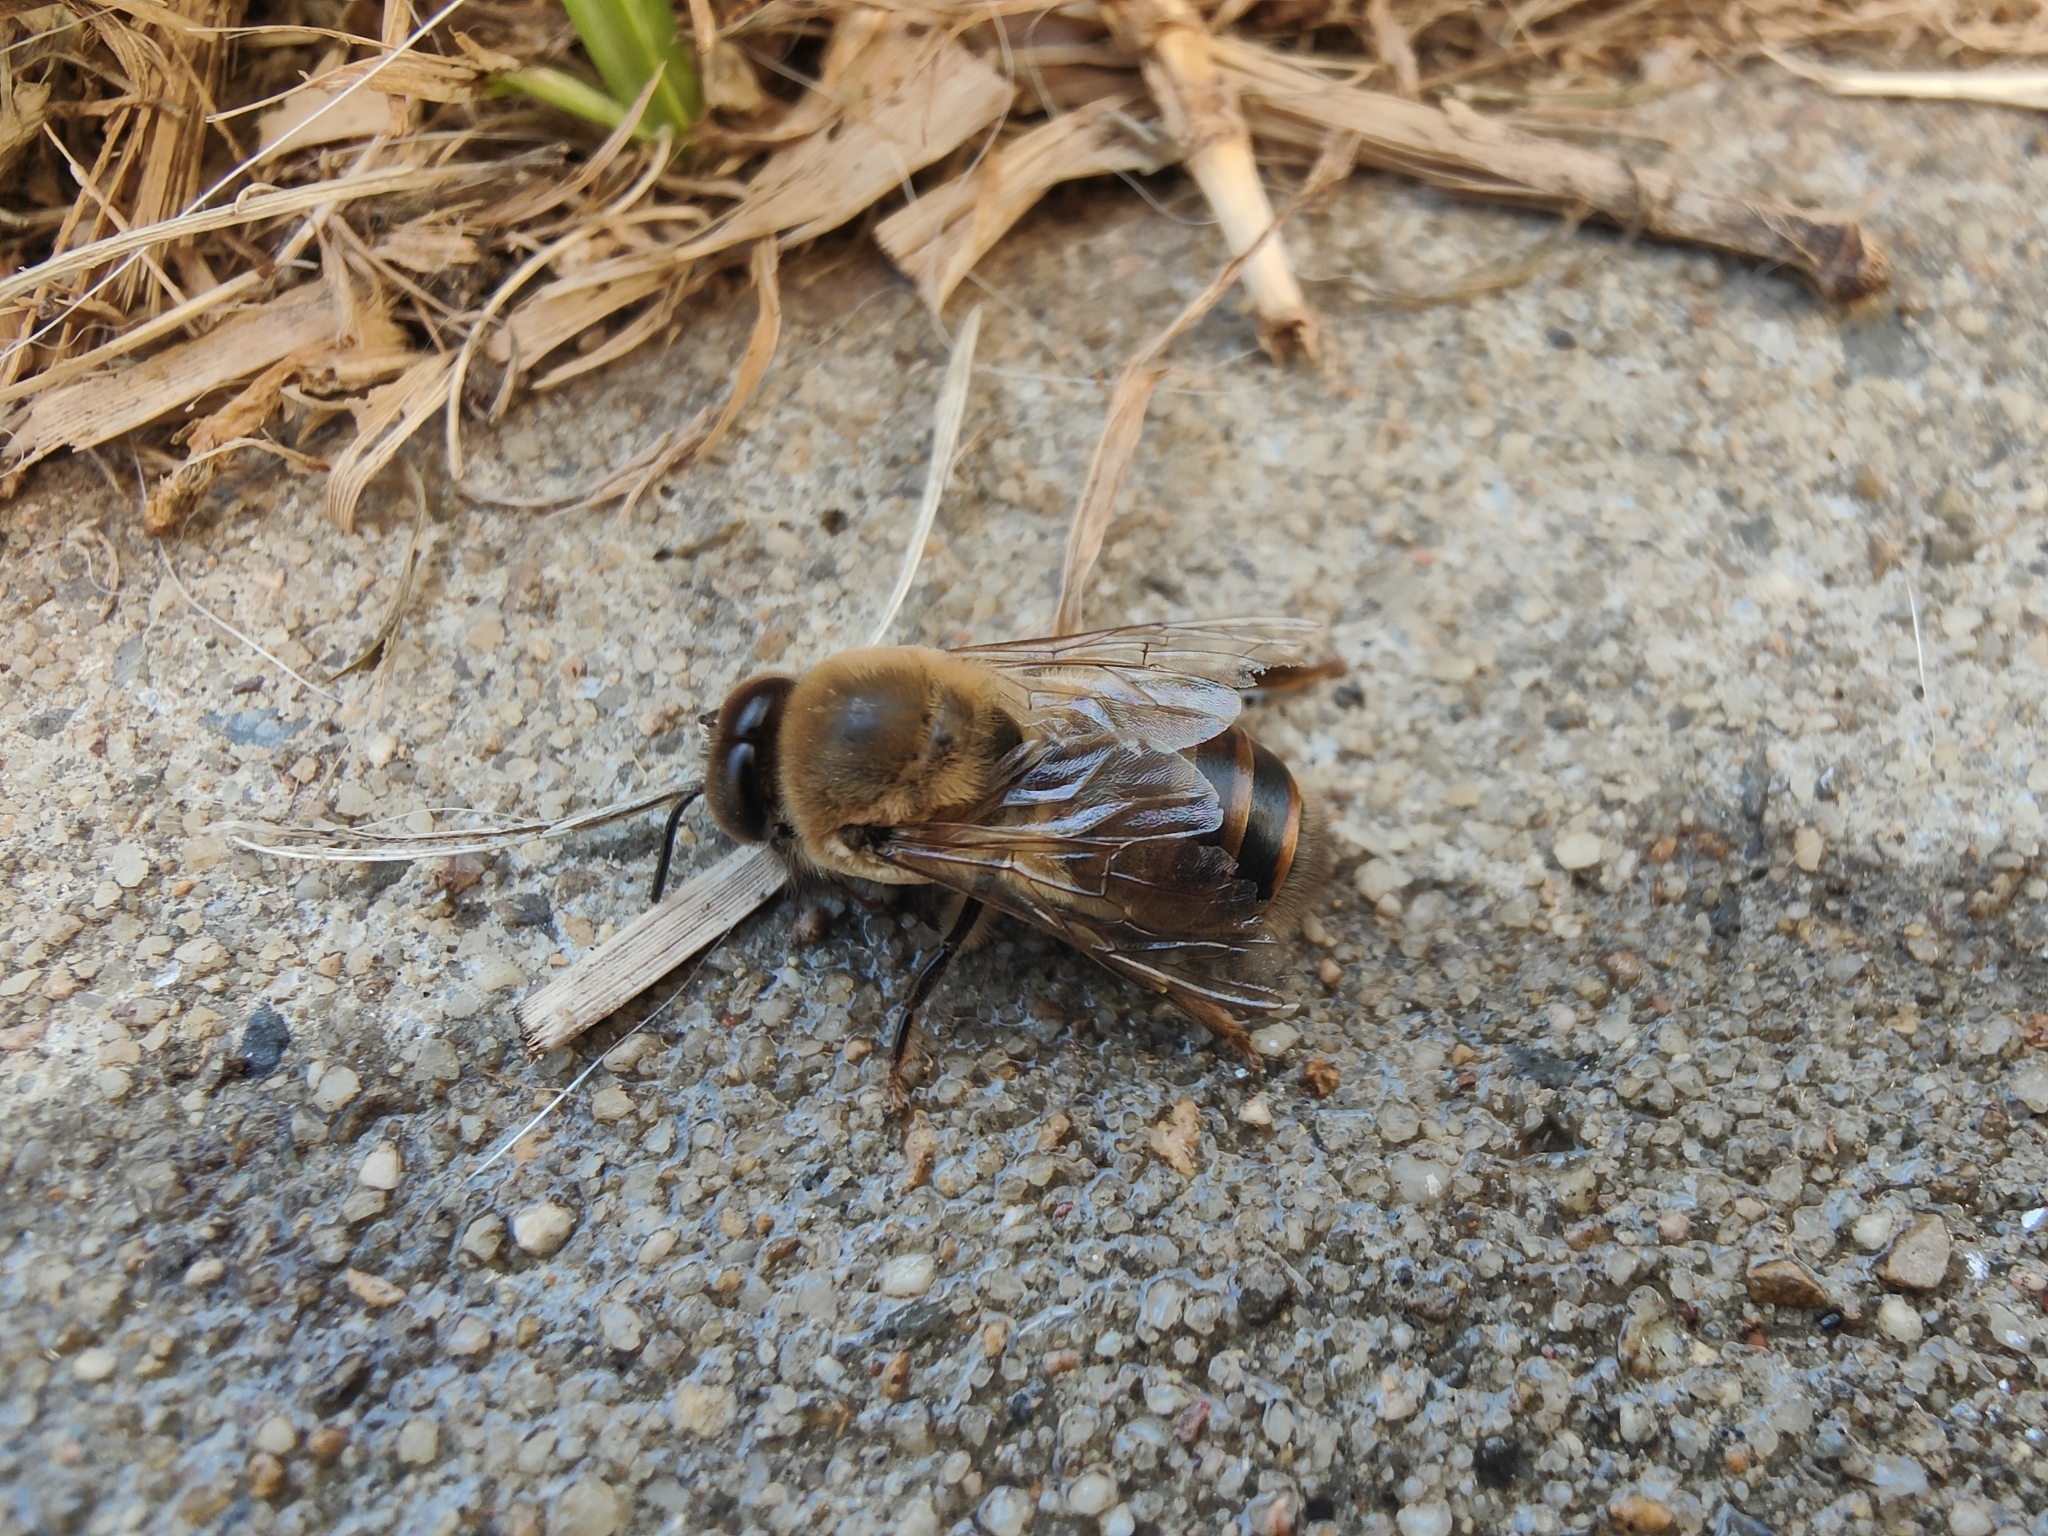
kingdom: Animalia
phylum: Arthropoda
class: Insecta
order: Hymenoptera
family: Apidae
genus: Apis
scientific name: Apis mellifera
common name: Honey bee
